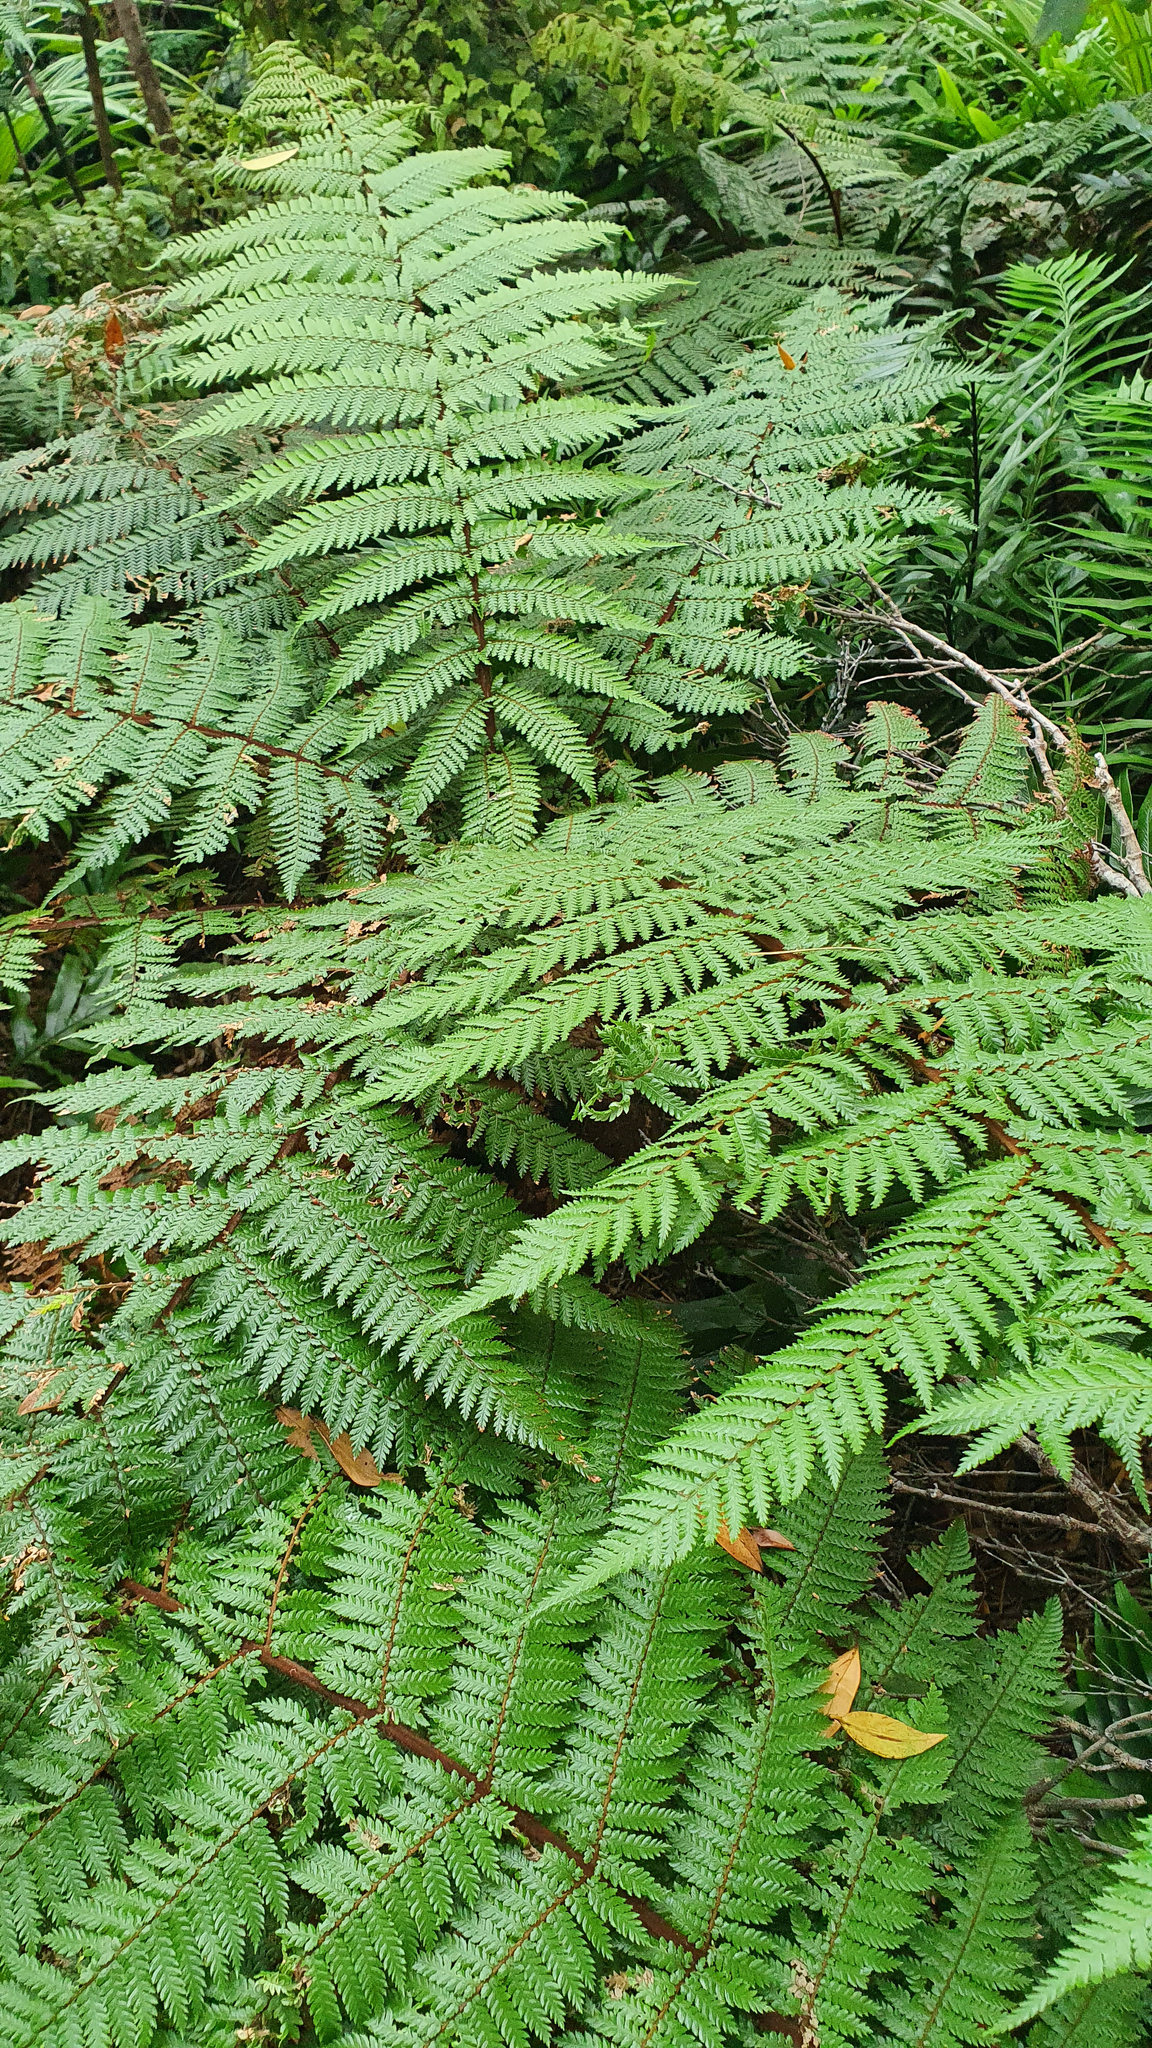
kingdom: Plantae
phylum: Tracheophyta
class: Polypodiopsida
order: Cyatheales
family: Cyatheaceae
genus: Alsophila
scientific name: Alsophila smithii
